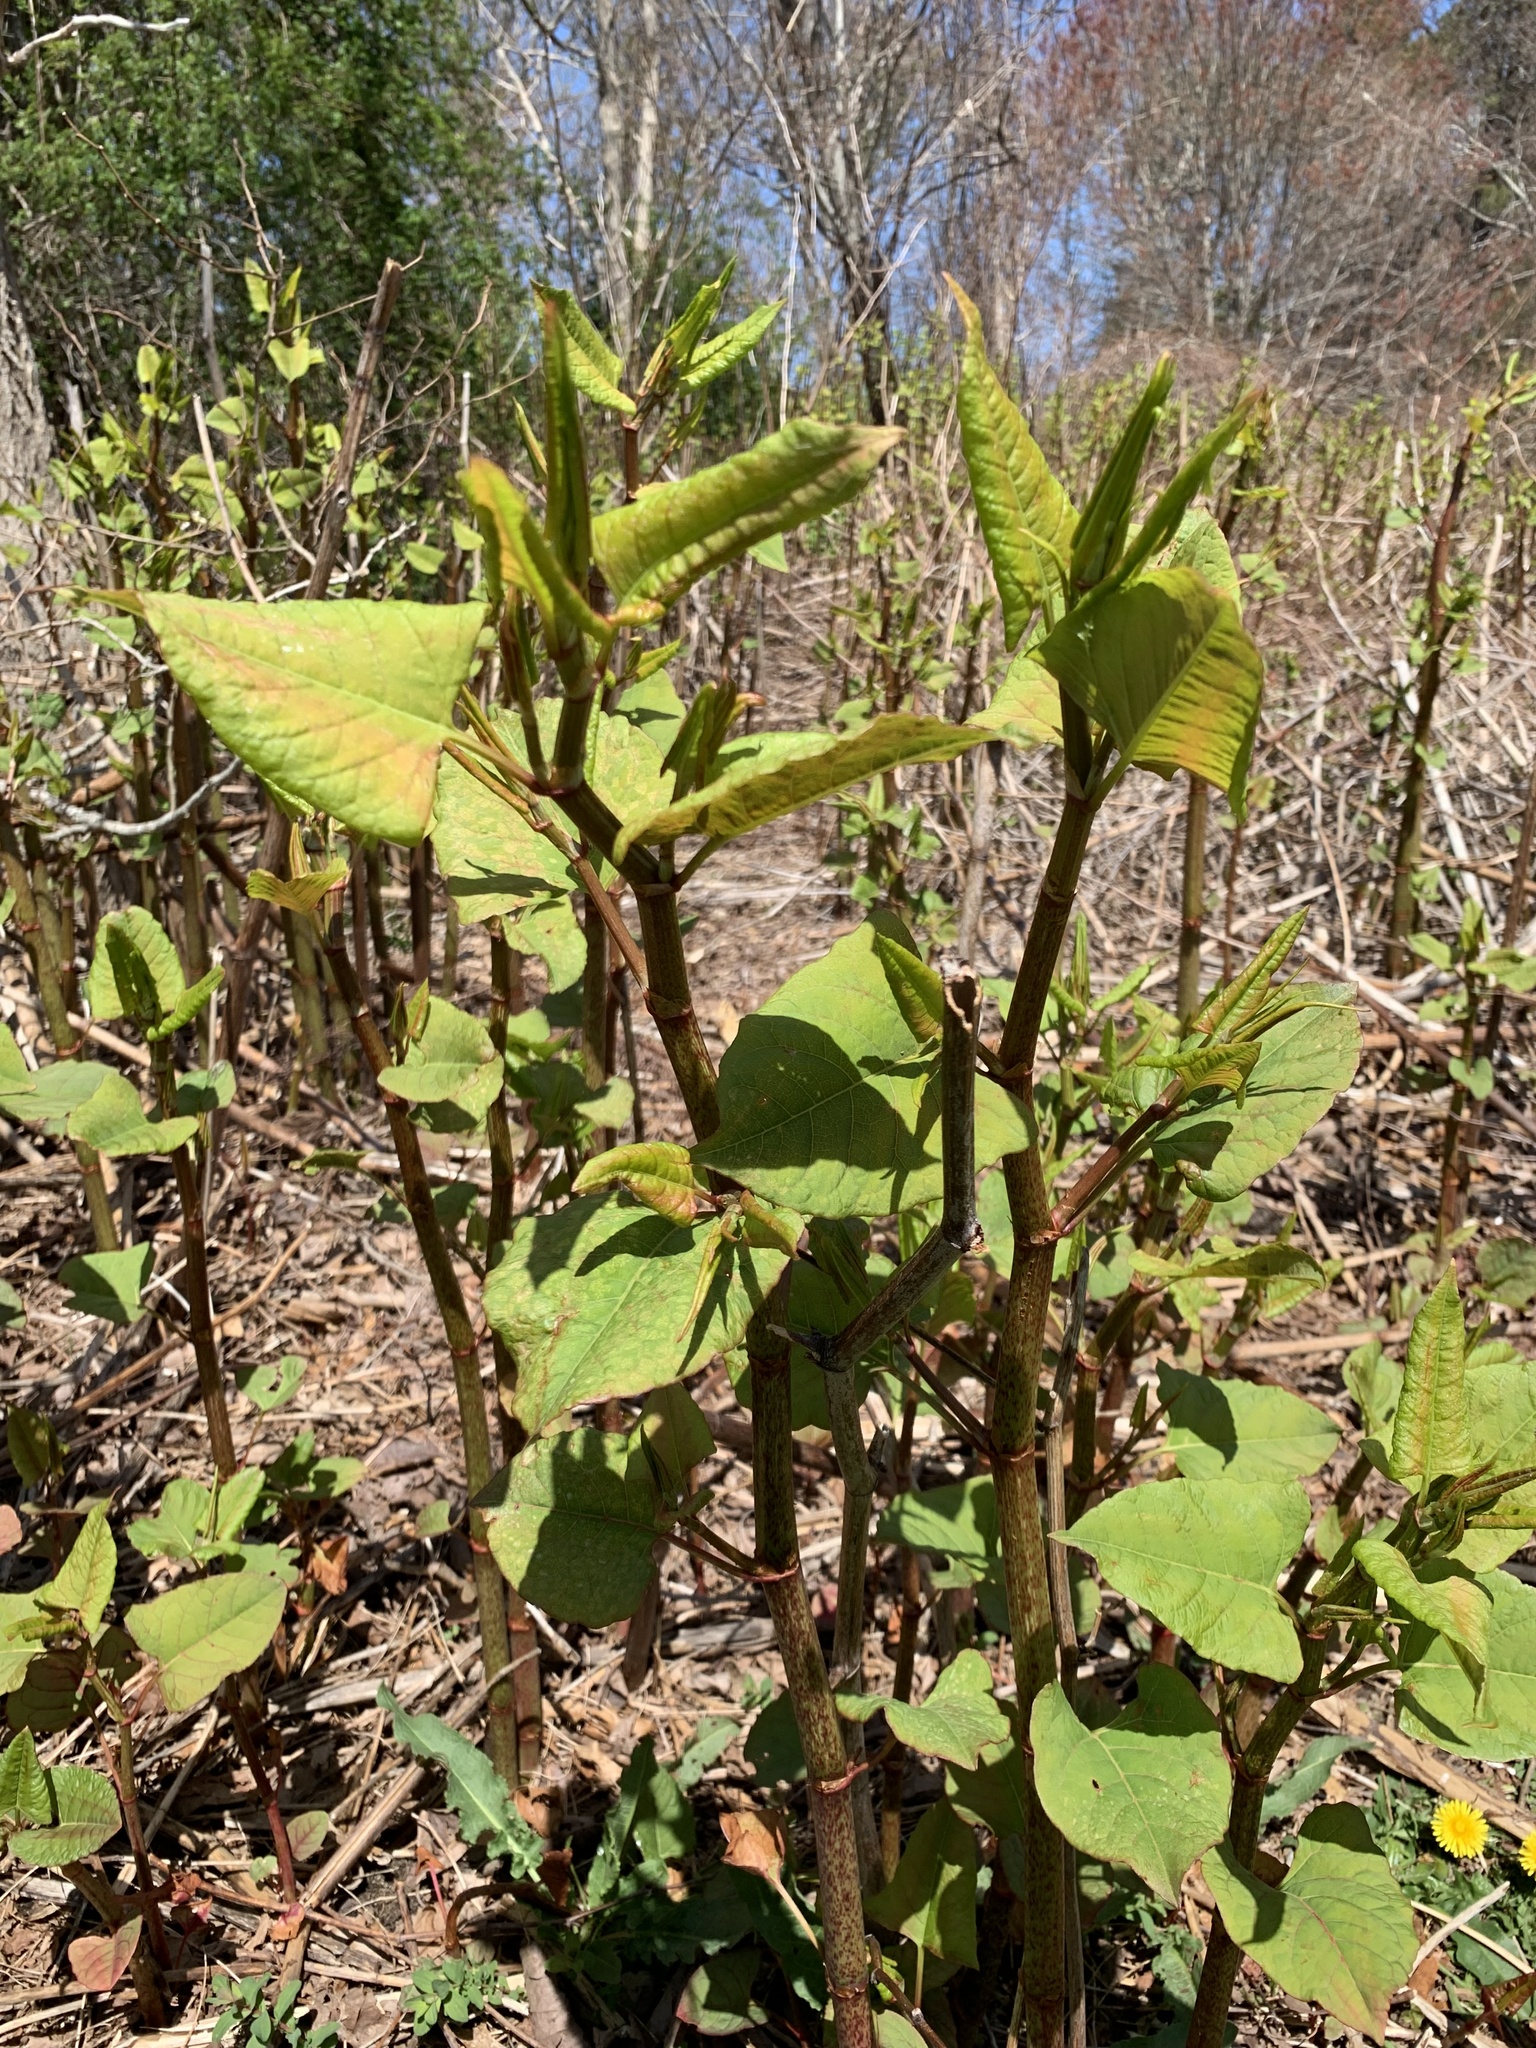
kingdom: Plantae
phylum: Tracheophyta
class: Magnoliopsida
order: Caryophyllales
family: Polygonaceae
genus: Reynoutria
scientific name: Reynoutria japonica
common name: Japanese knotweed
